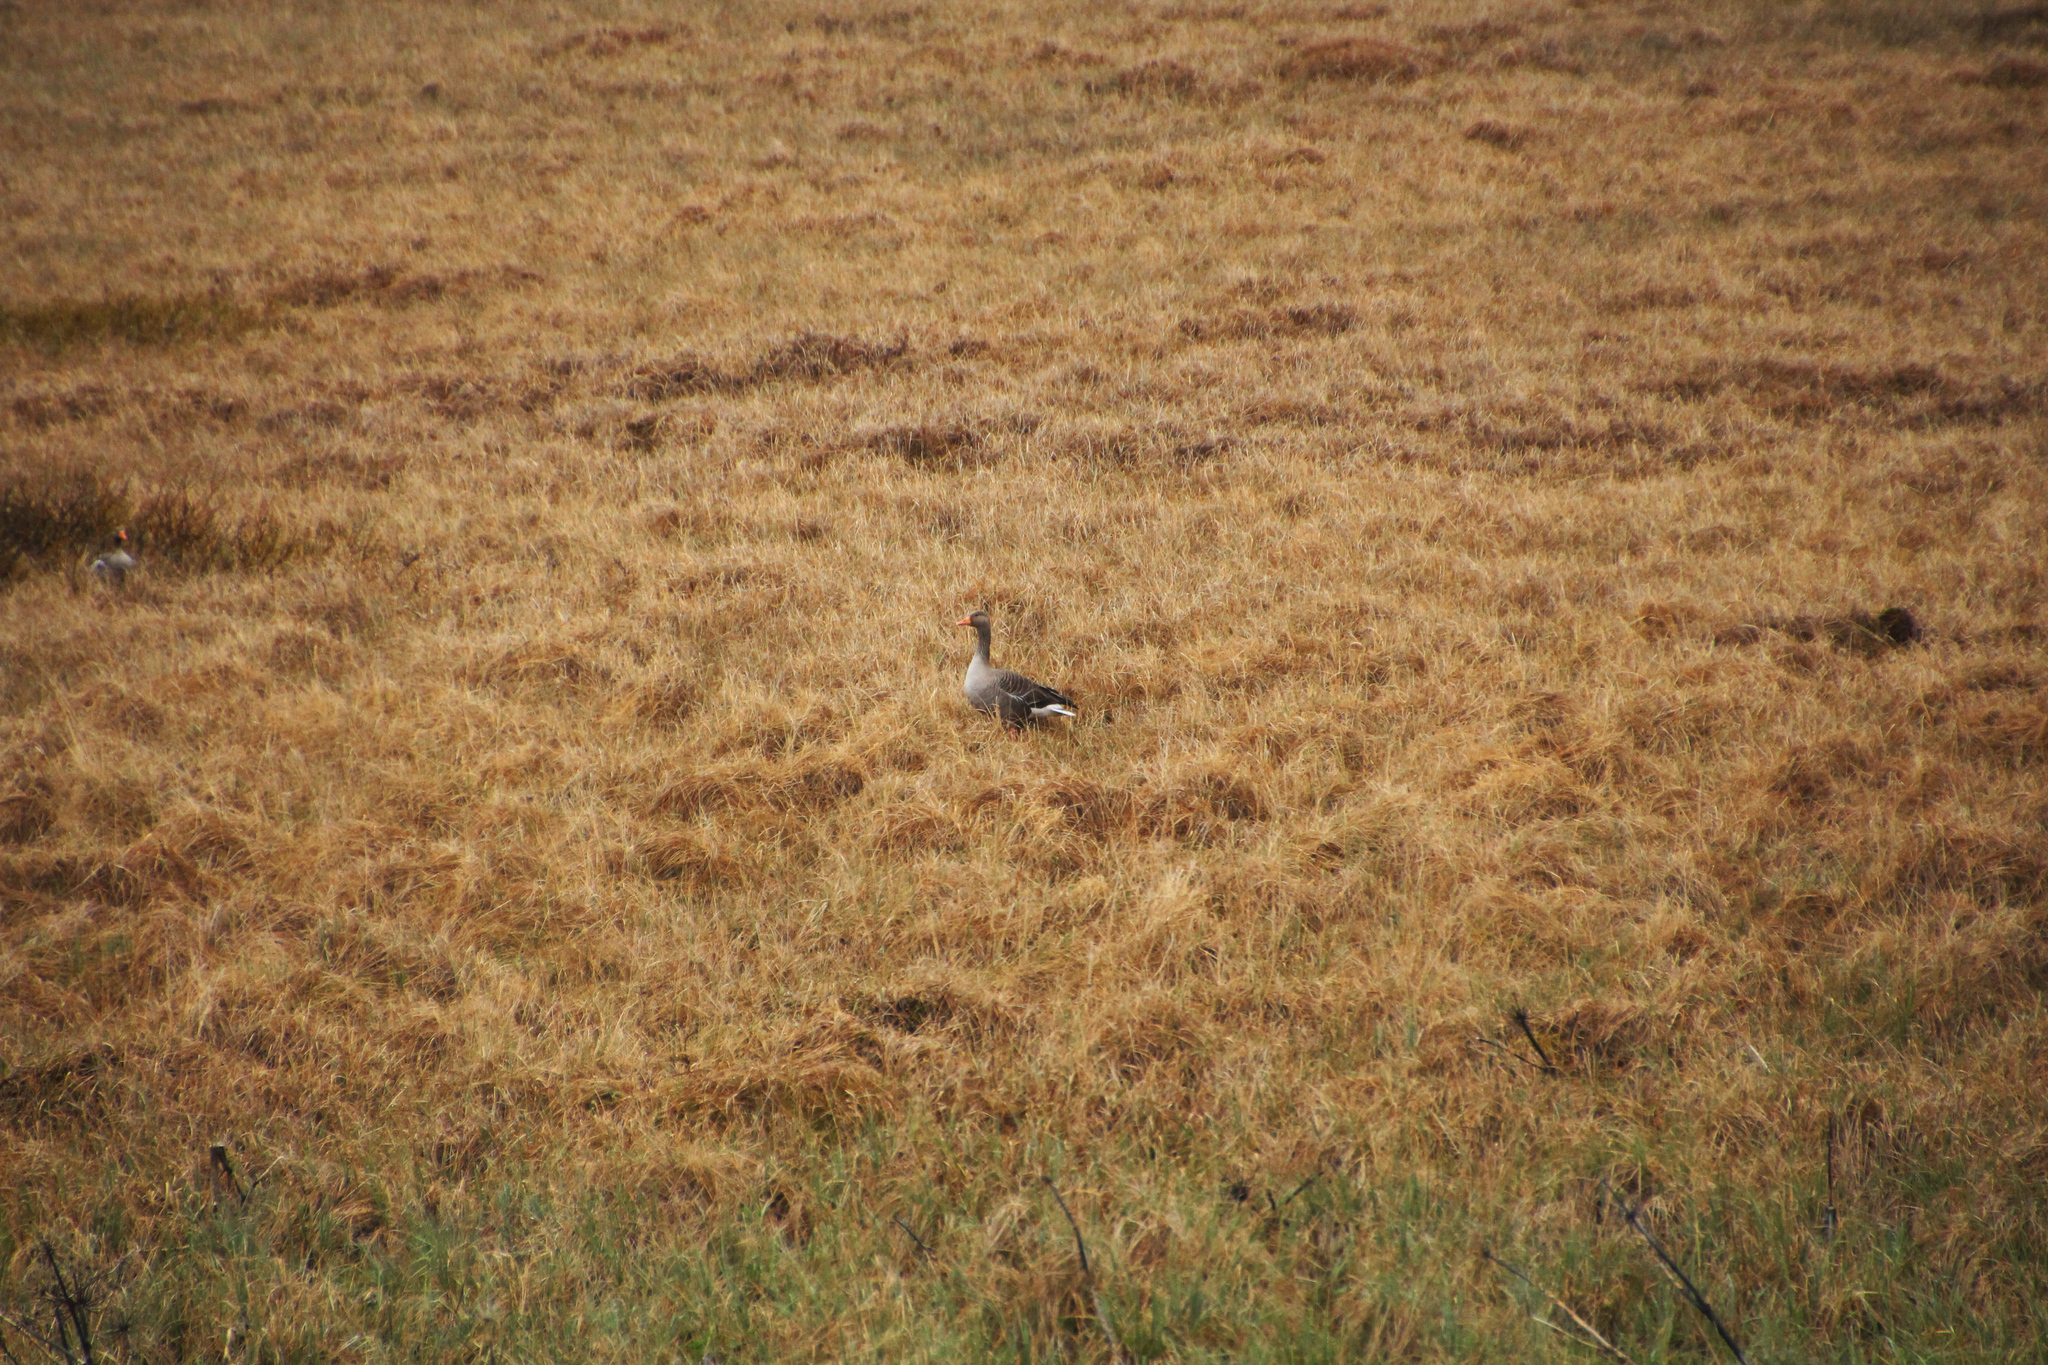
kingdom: Animalia
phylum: Chordata
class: Aves
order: Anseriformes
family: Anatidae
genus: Anser
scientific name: Anser anser
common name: Greylag goose
